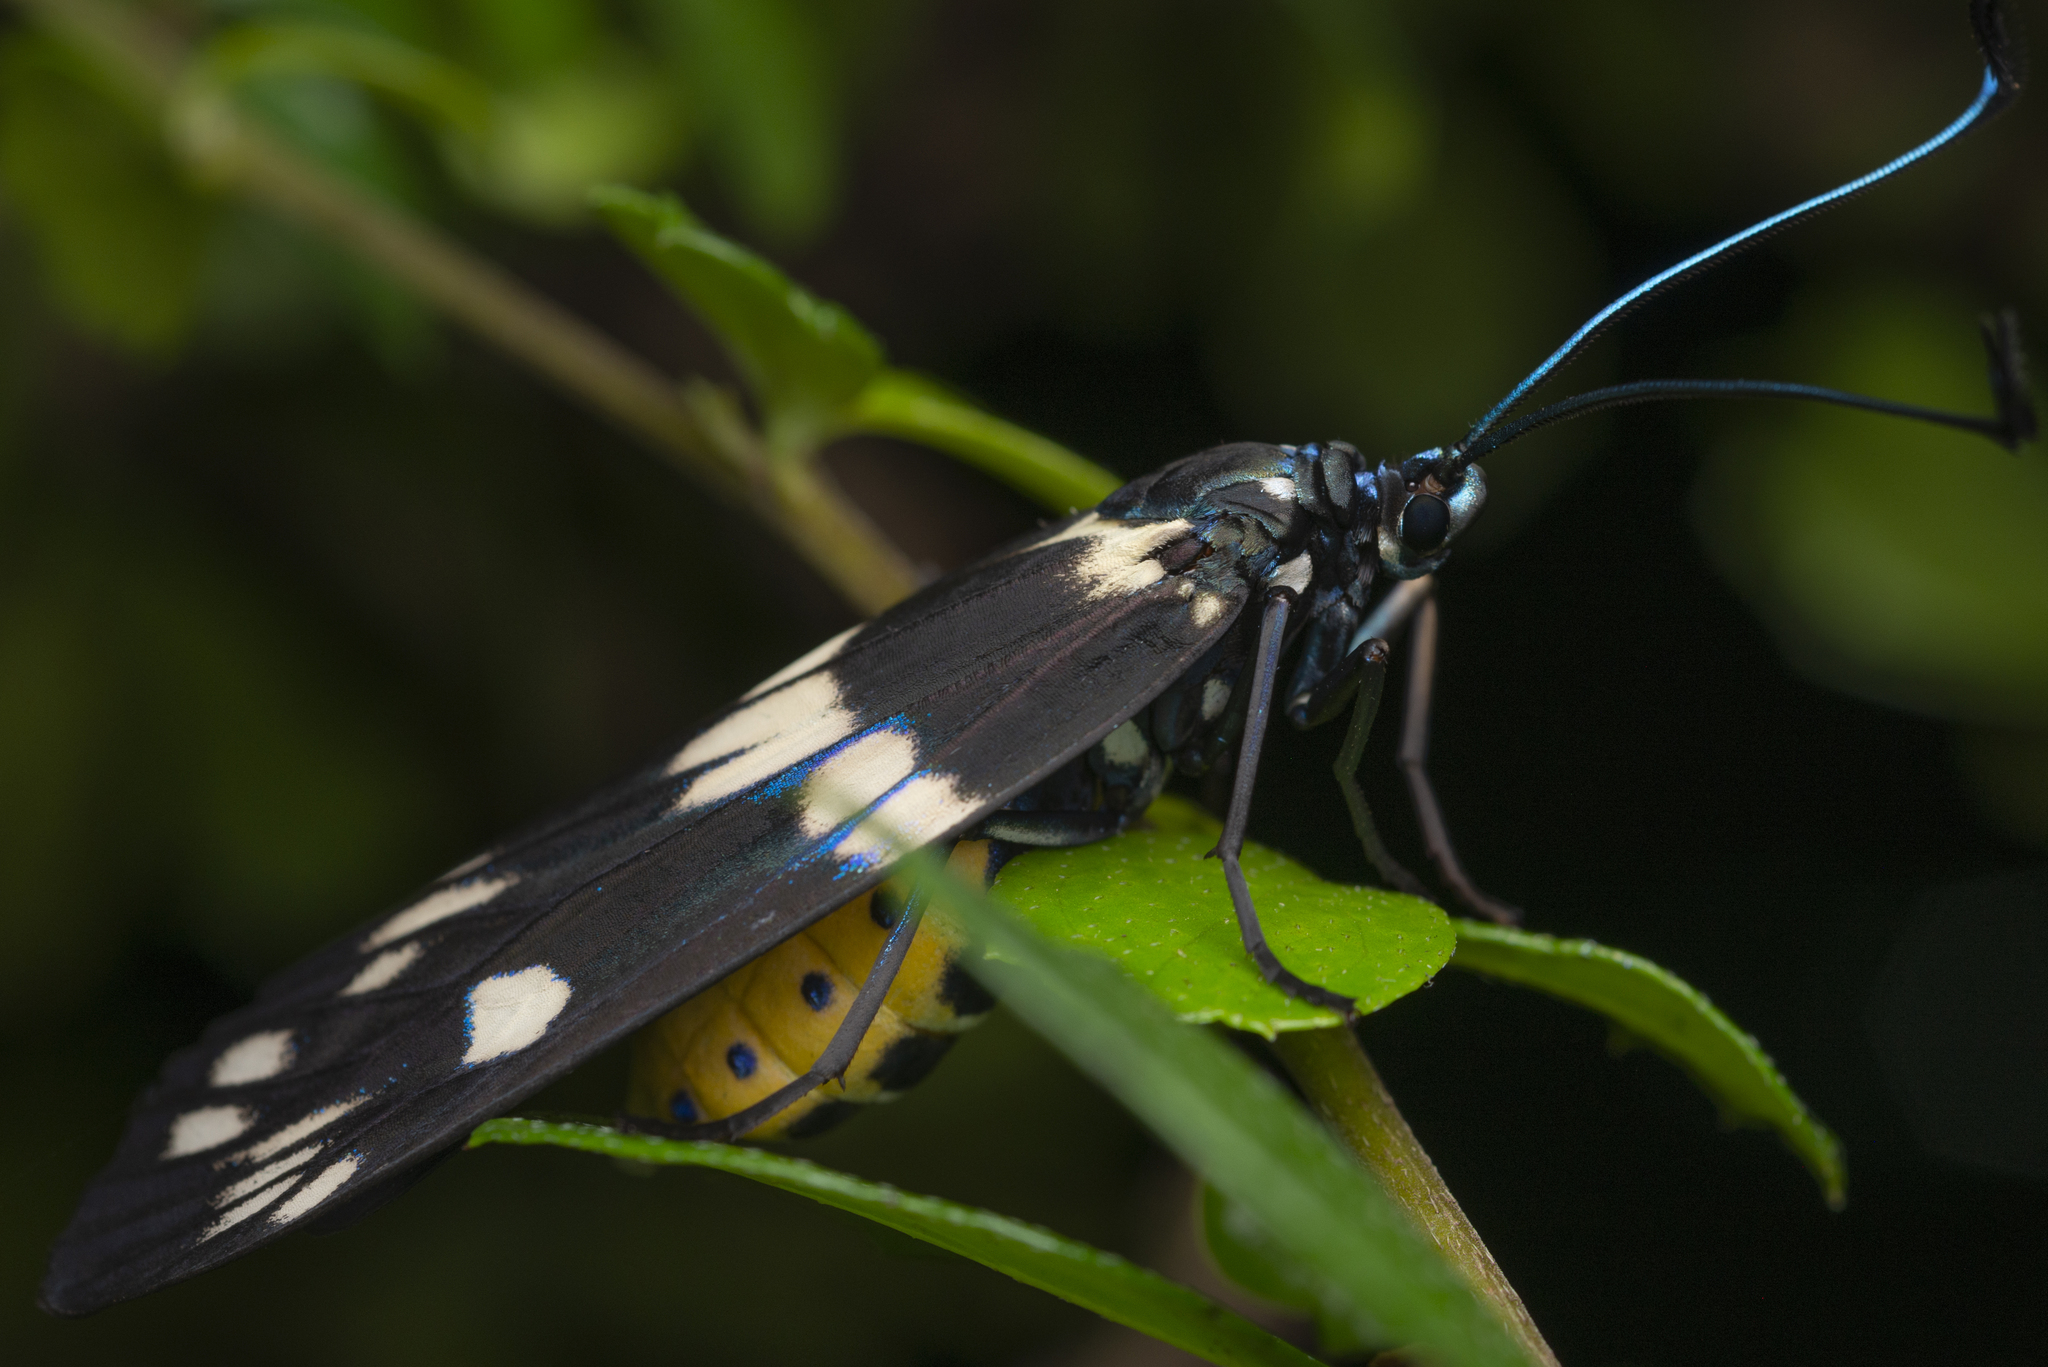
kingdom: Animalia
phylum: Arthropoda
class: Insecta
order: Lepidoptera
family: Zygaenidae
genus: Eterusia
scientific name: Eterusia aedea
